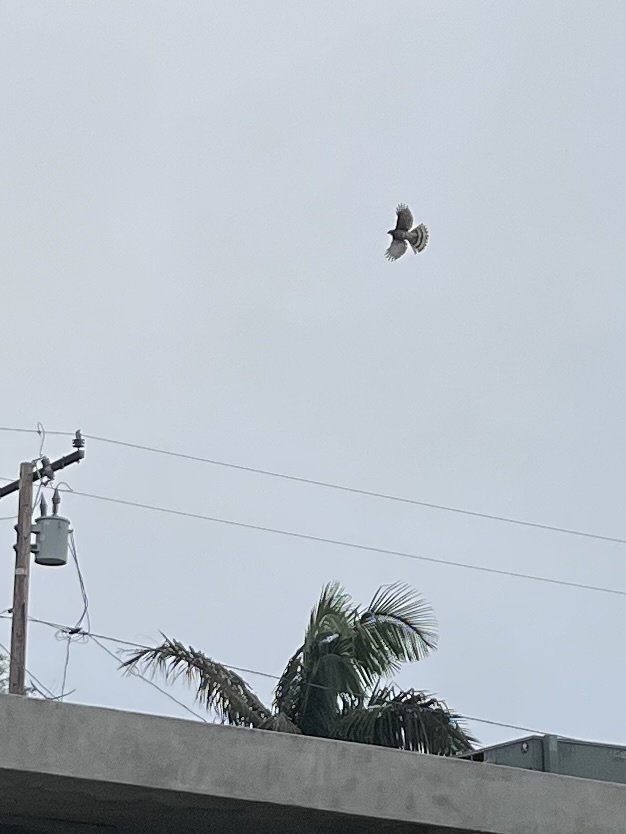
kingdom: Animalia
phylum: Chordata
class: Aves
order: Accipitriformes
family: Accipitridae
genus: Accipiter
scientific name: Accipiter cooperii
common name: Cooper's hawk
